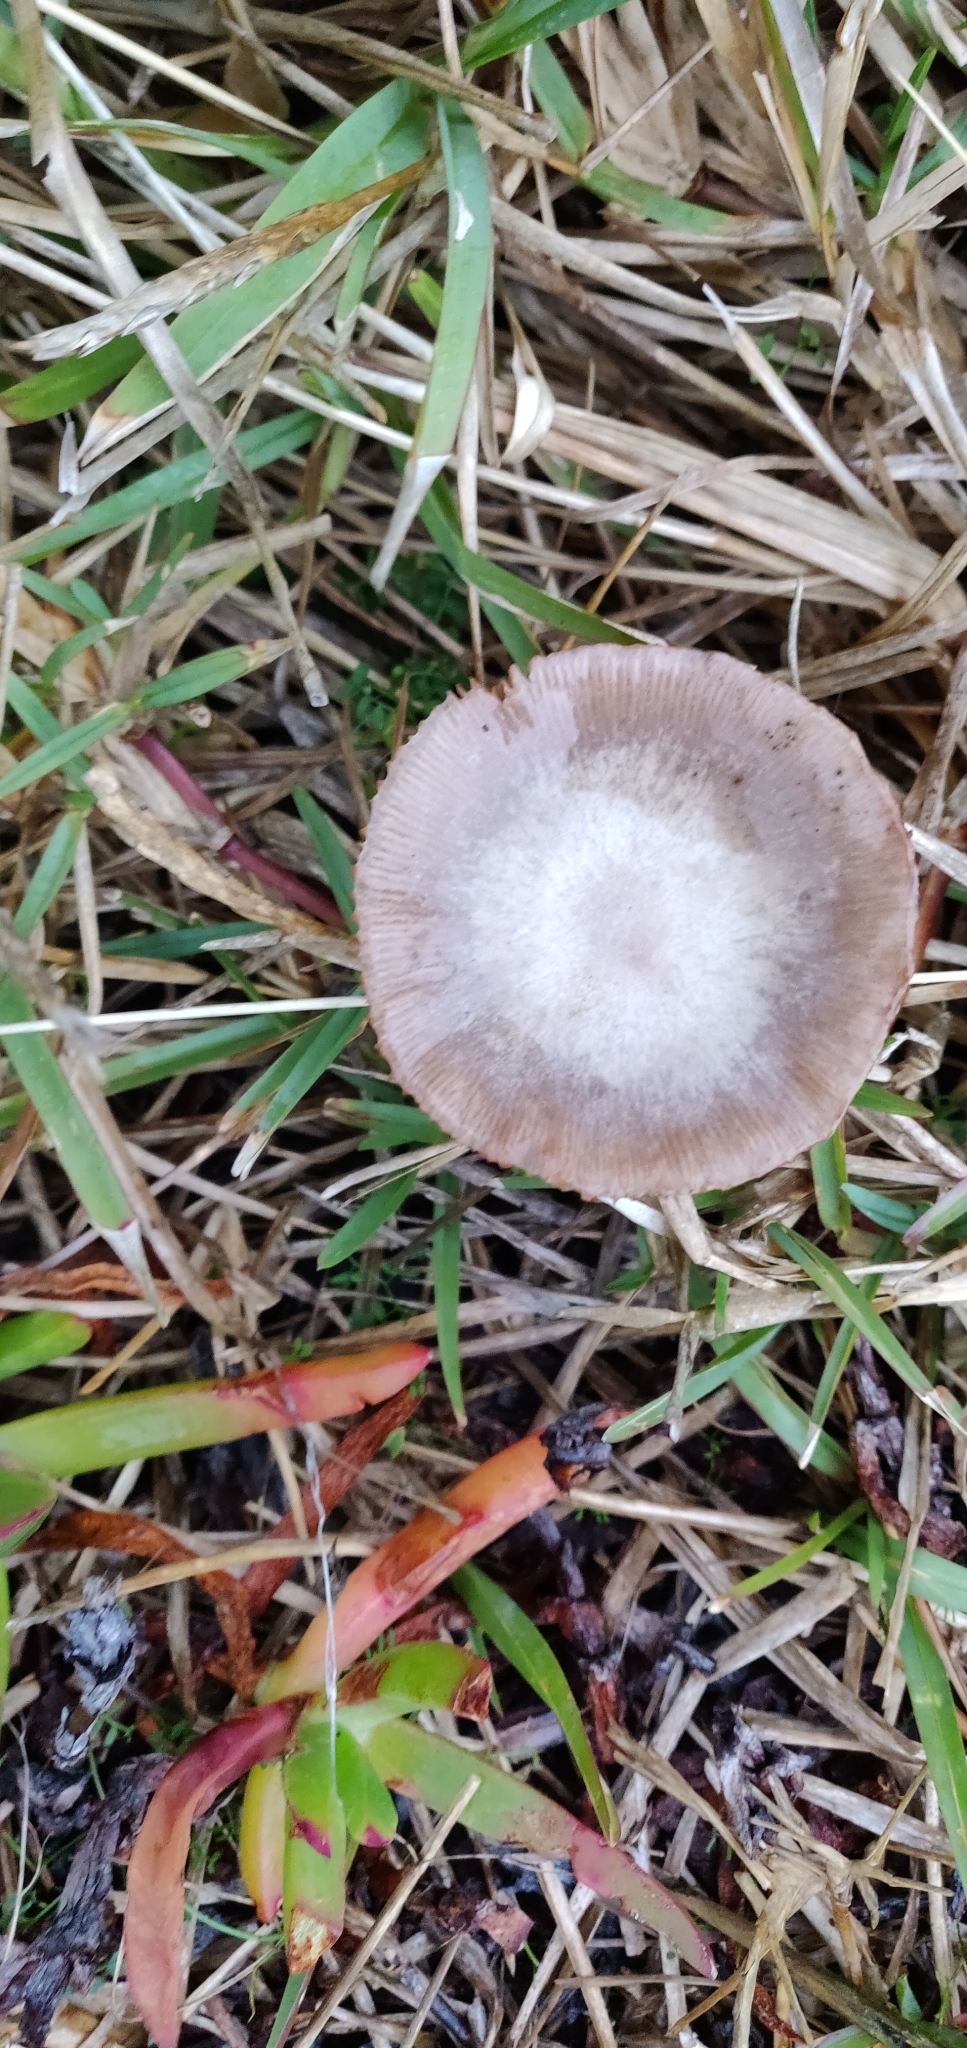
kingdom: Fungi
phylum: Basidiomycota
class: Agaricomycetes
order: Agaricales
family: Pluteaceae
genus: Volvopluteus
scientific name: Volvopluteus gloiocephalus
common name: Stubble rosegill
